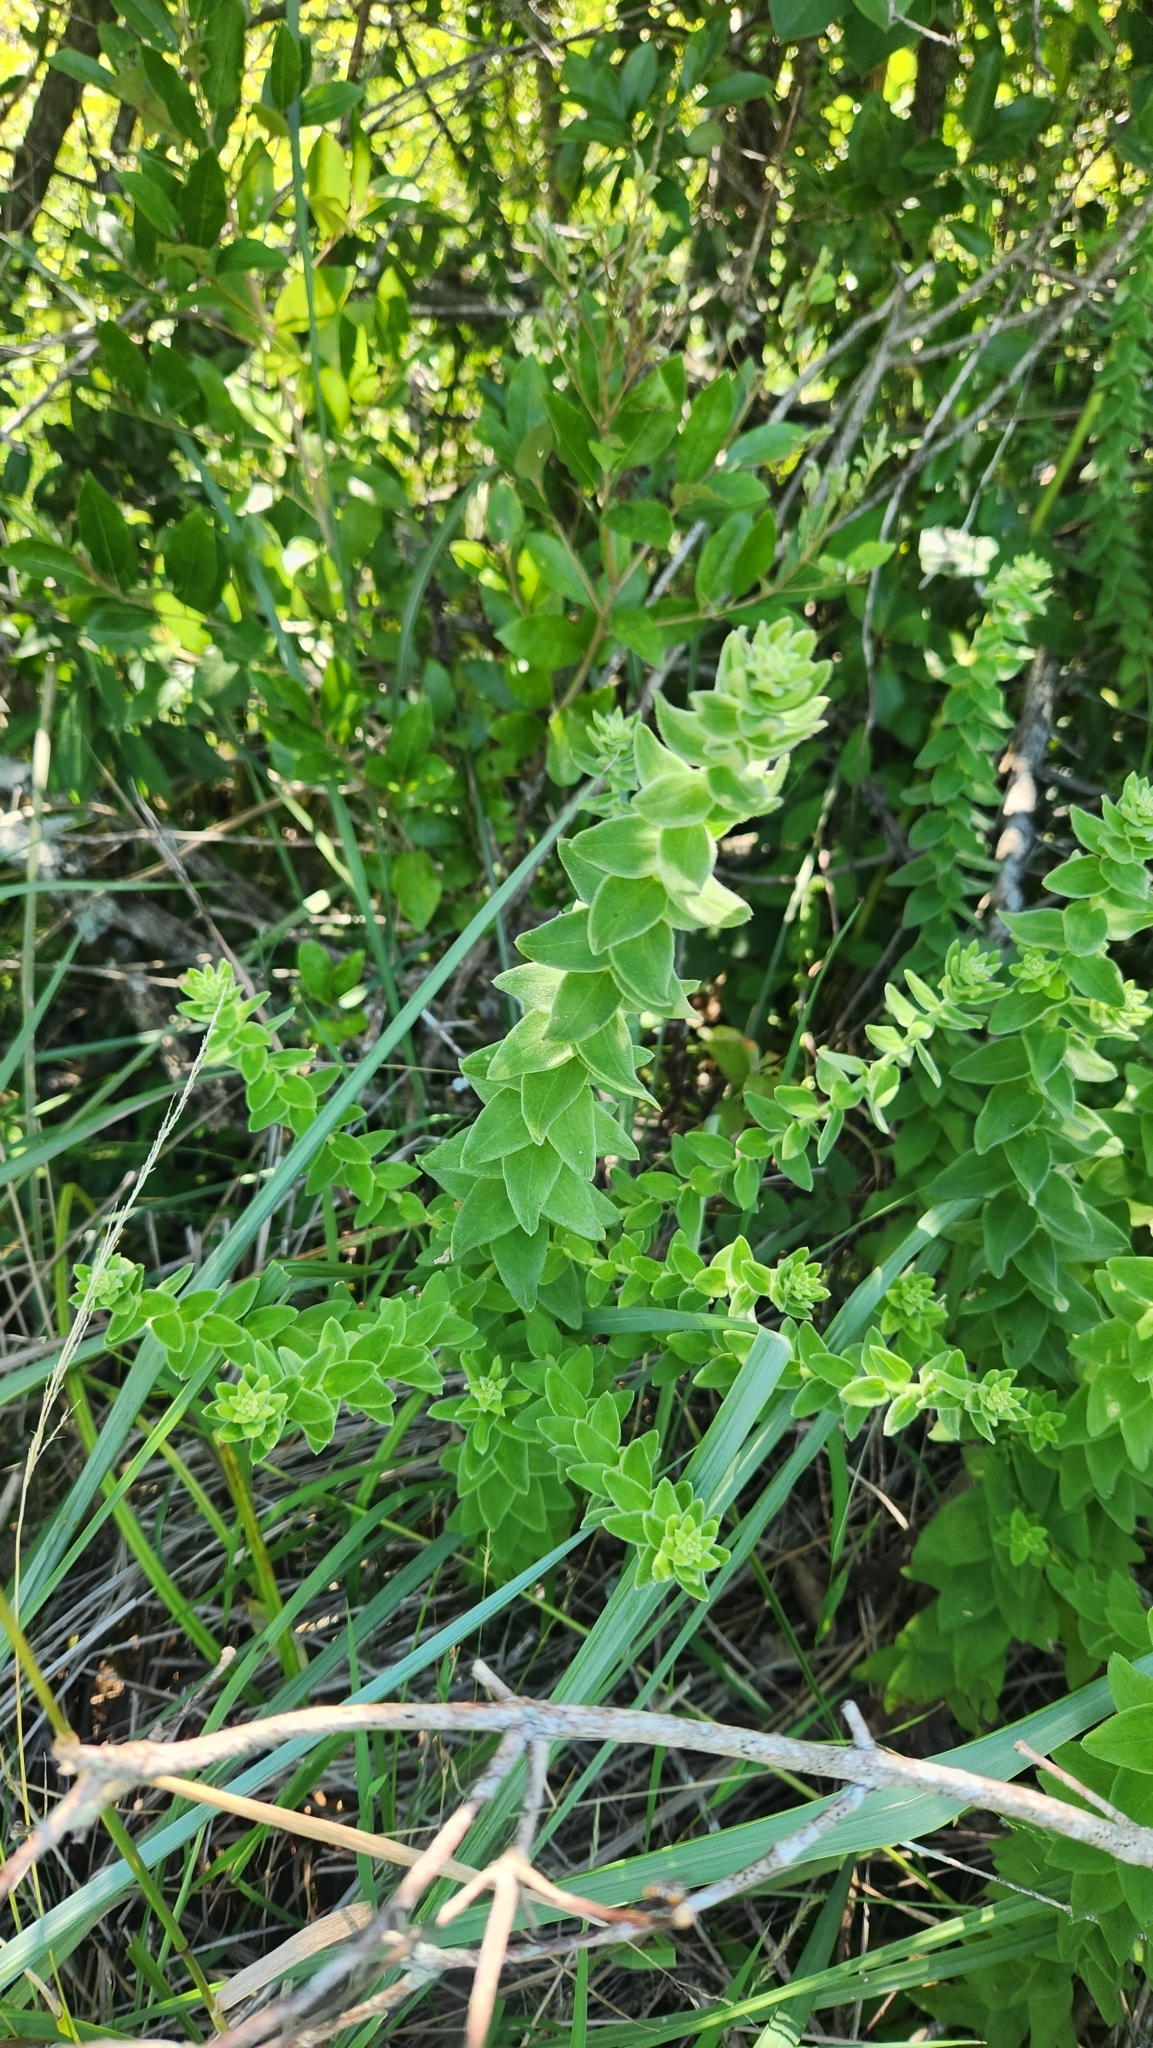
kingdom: Plantae
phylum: Tracheophyta
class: Magnoliopsida
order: Asterales
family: Asteraceae
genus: Baccharis
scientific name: Baccharis gibertii
